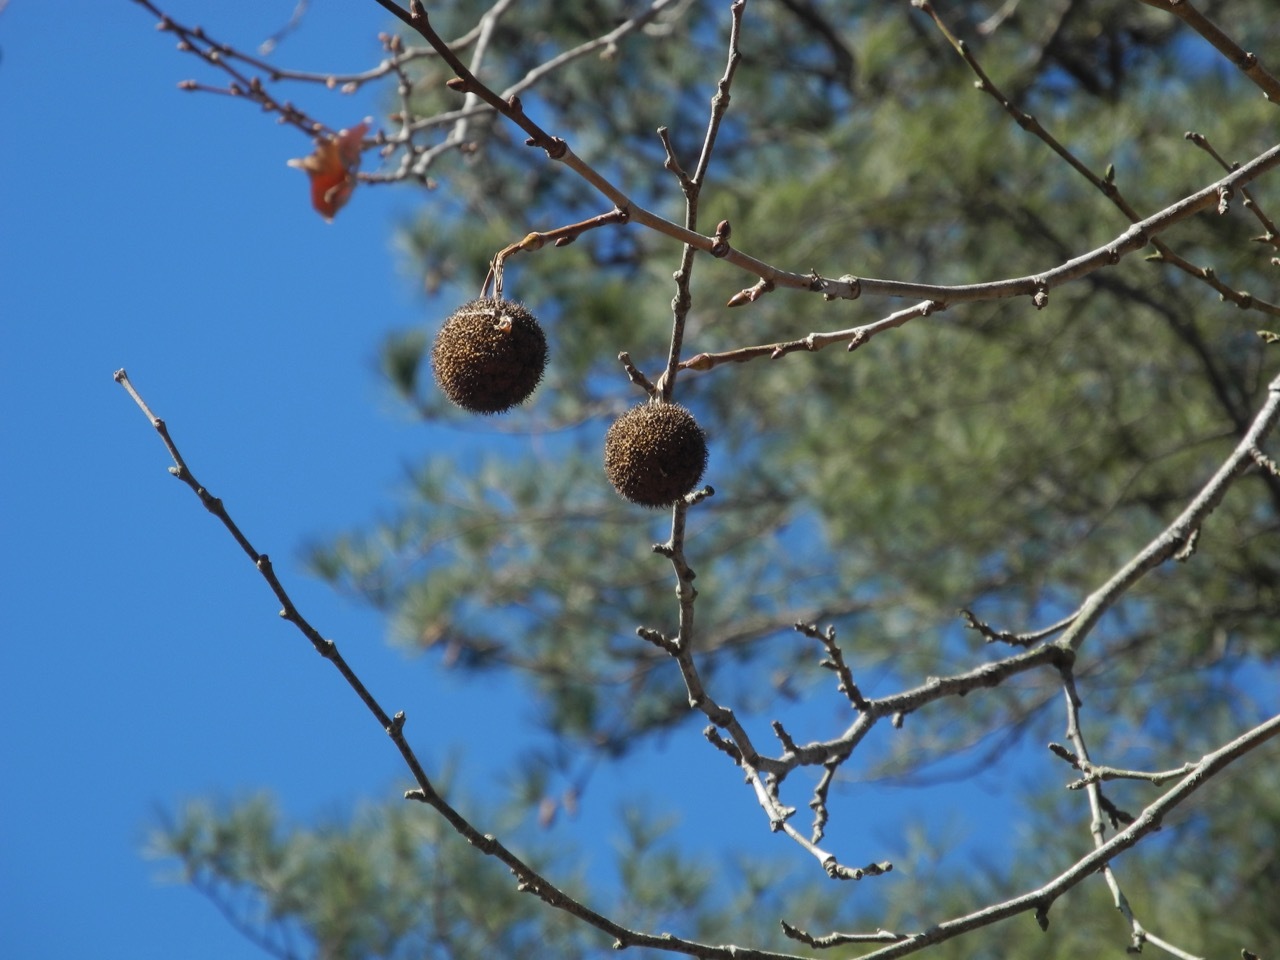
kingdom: Plantae
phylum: Tracheophyta
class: Magnoliopsida
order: Proteales
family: Platanaceae
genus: Platanus
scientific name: Platanus occidentalis
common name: American sycamore
